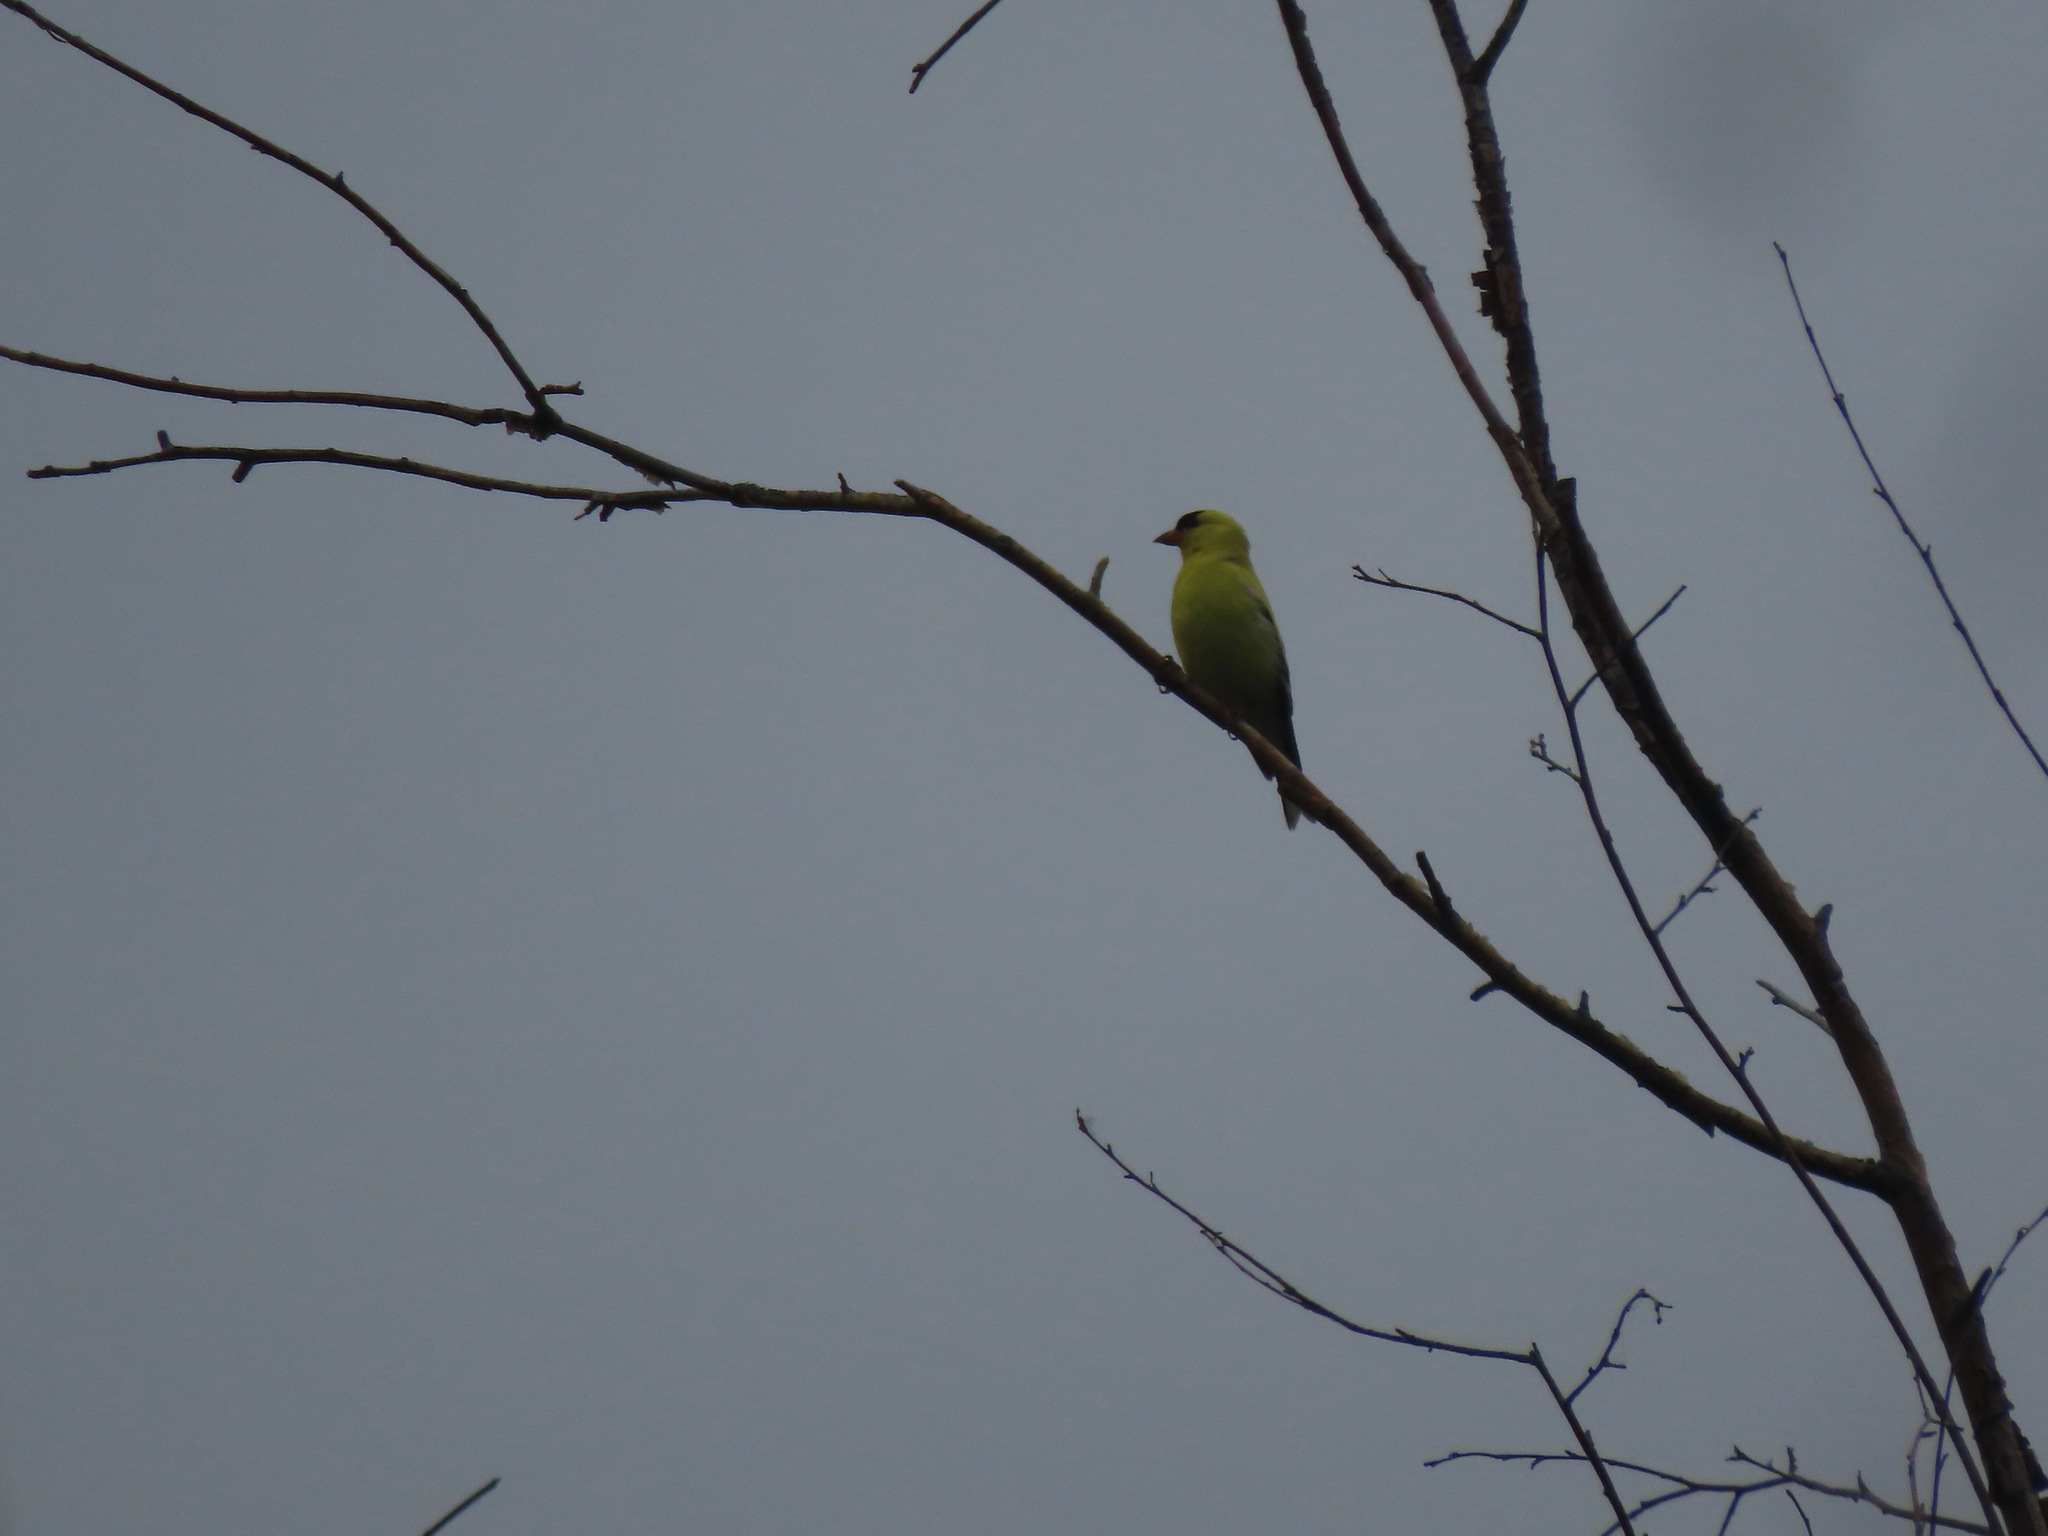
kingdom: Animalia
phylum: Chordata
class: Aves
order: Passeriformes
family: Fringillidae
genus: Spinus
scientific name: Spinus tristis
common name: American goldfinch
